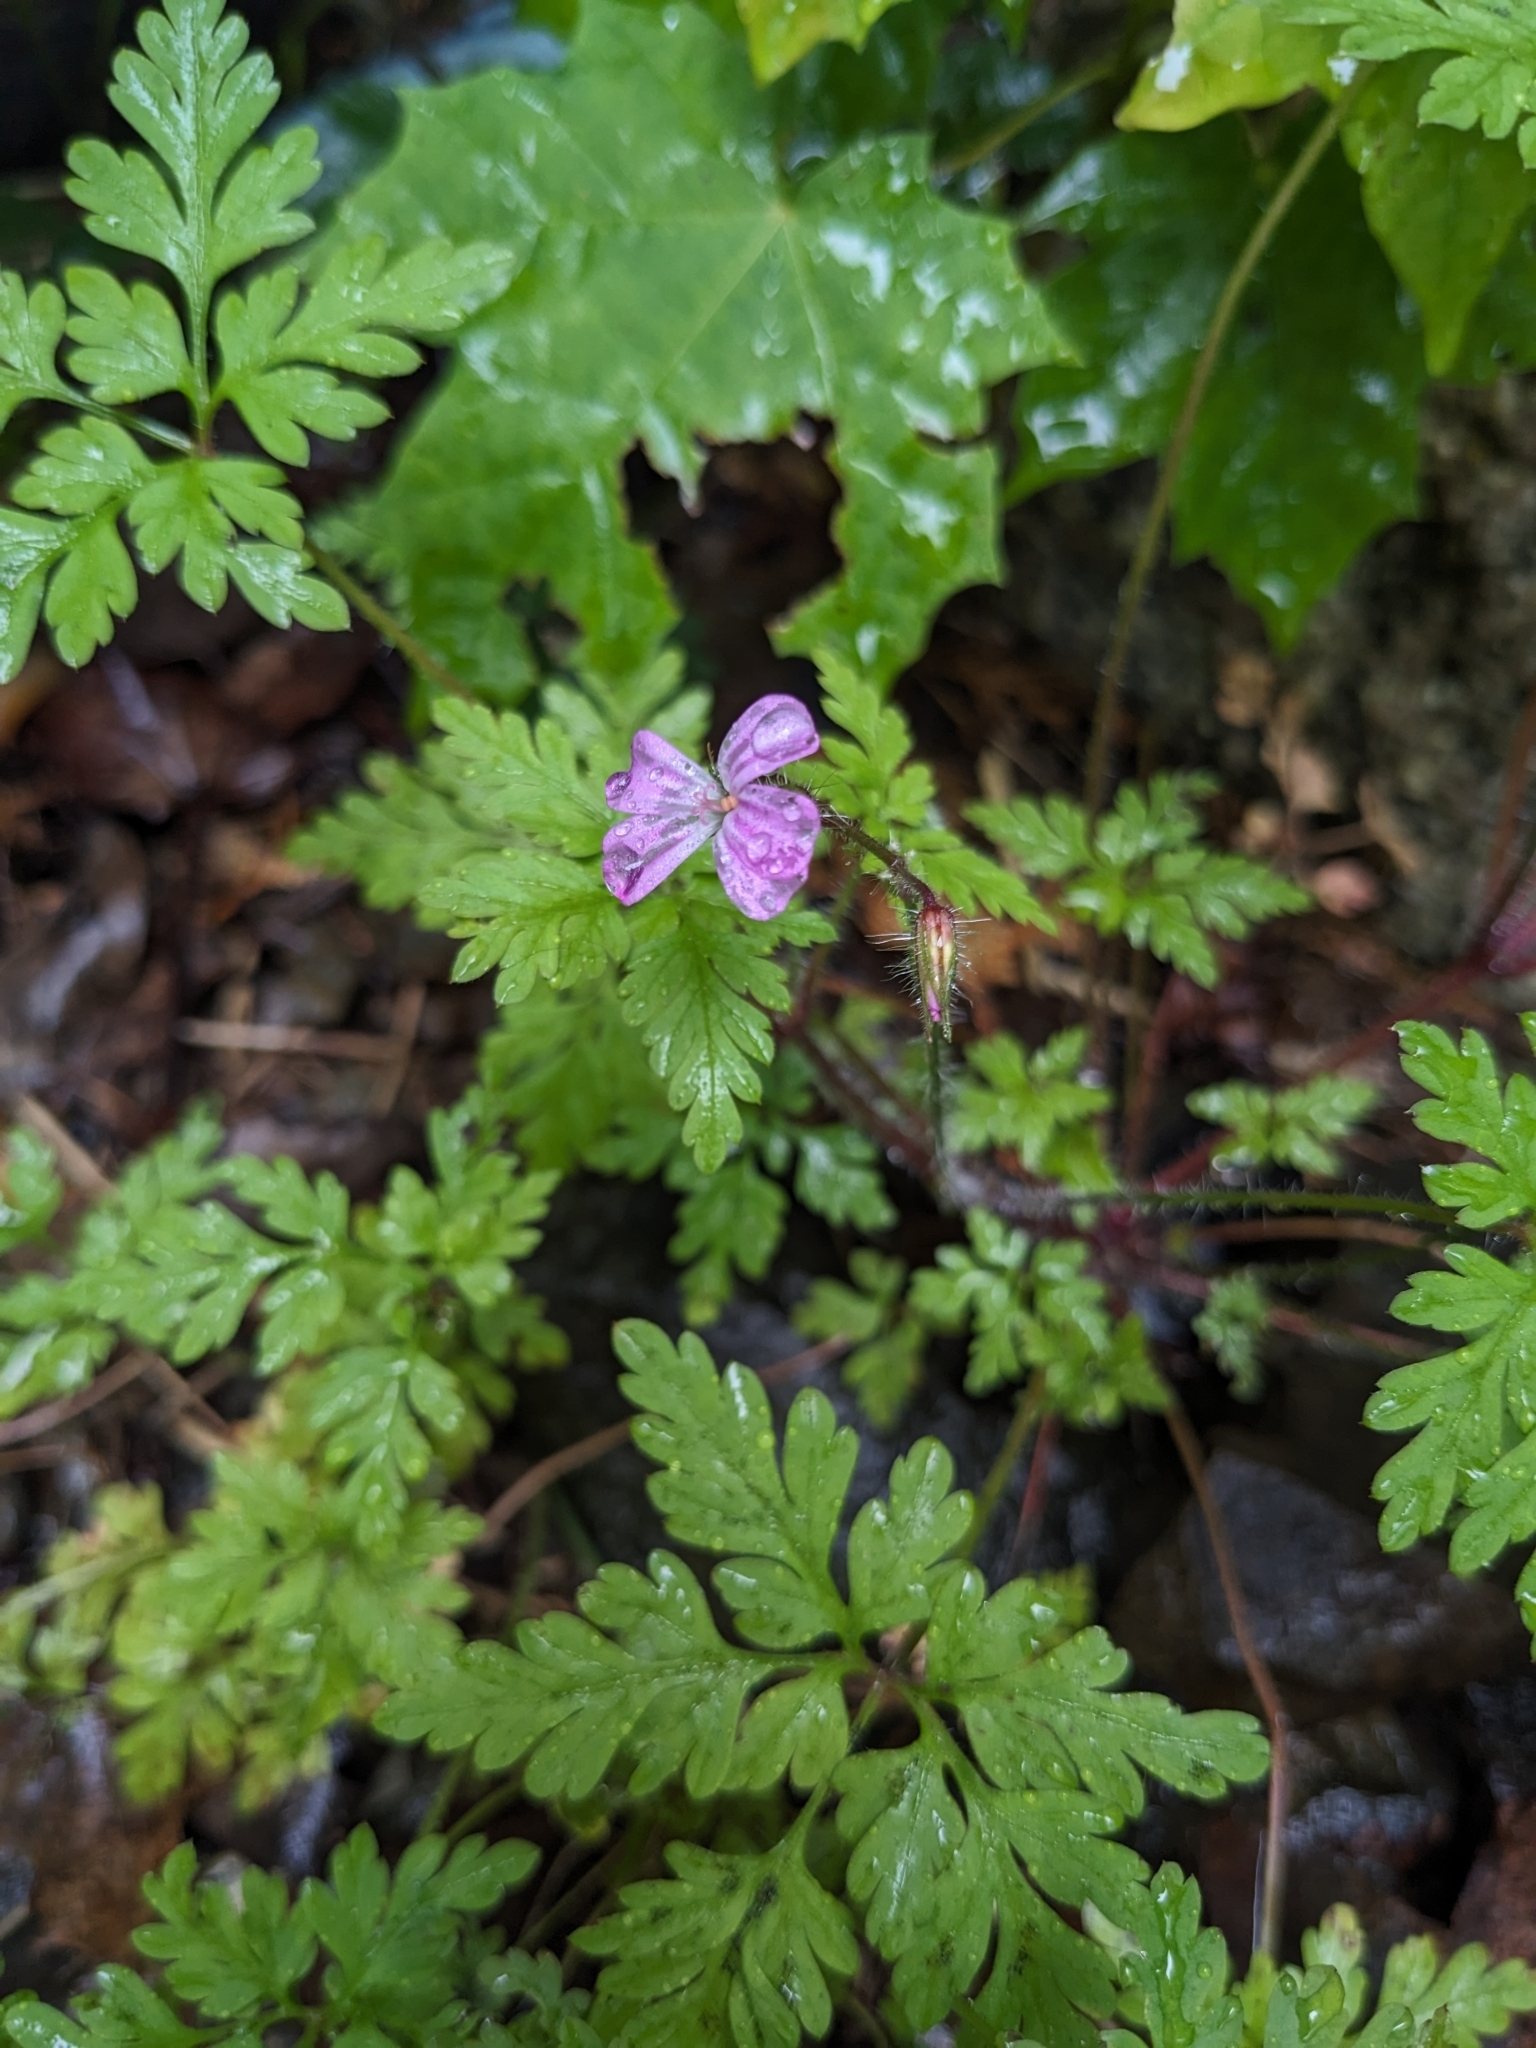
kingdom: Plantae
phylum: Tracheophyta
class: Magnoliopsida
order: Geraniales
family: Geraniaceae
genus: Geranium
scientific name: Geranium robertianum
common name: Herb-robert
